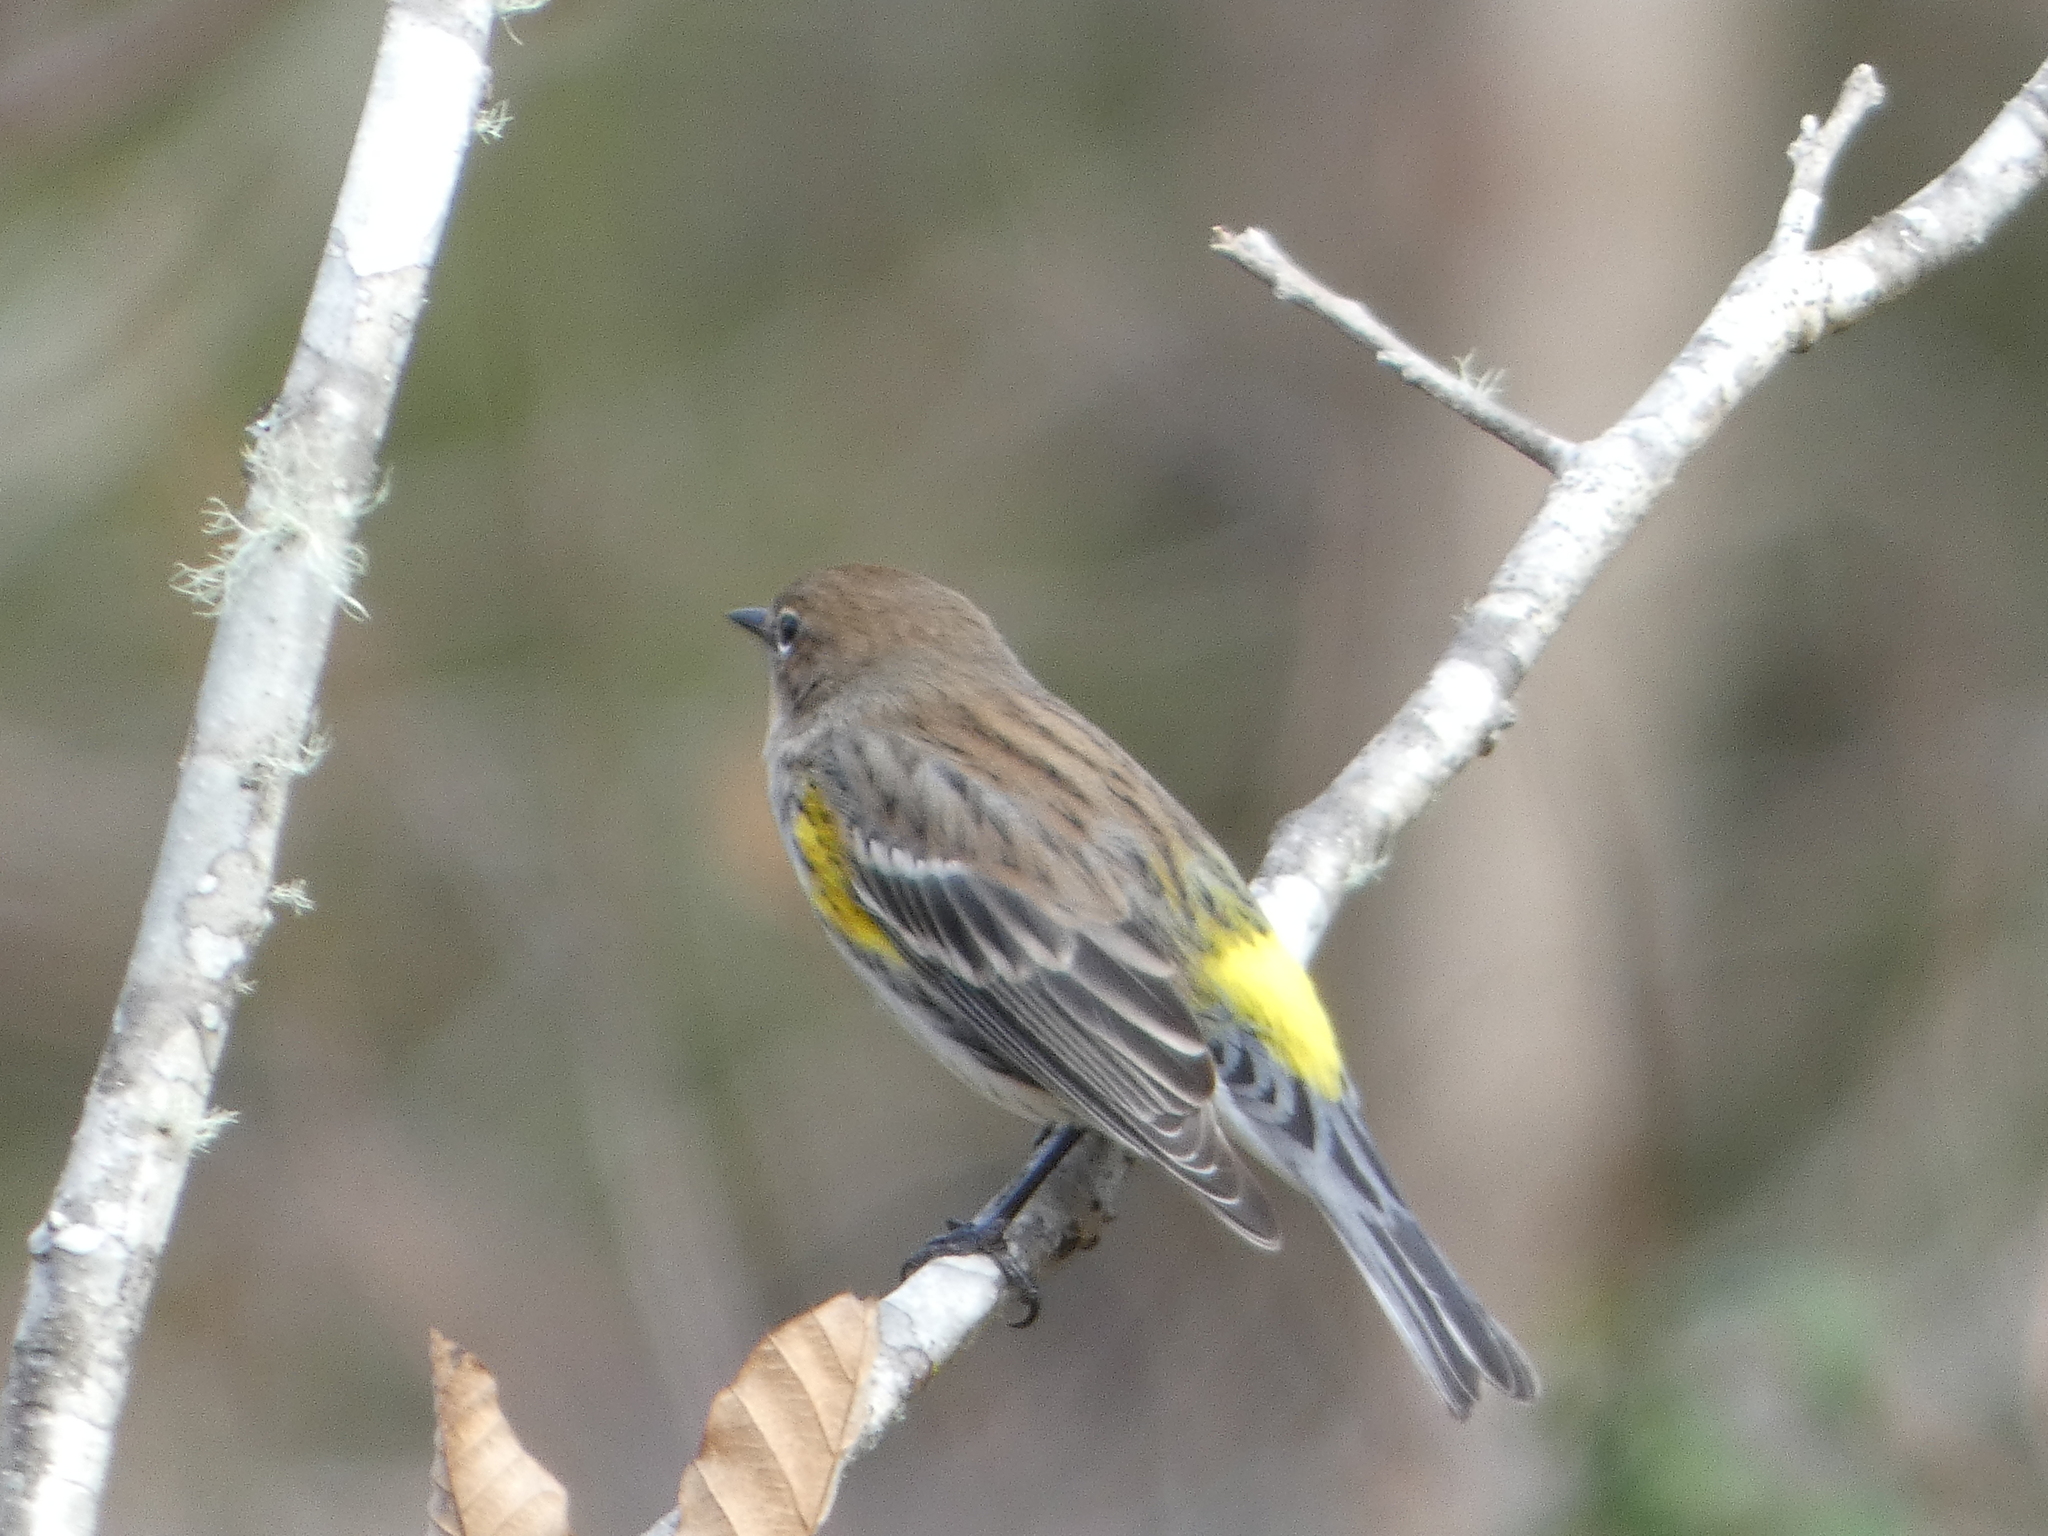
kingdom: Animalia
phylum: Chordata
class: Aves
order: Passeriformes
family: Parulidae
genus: Setophaga
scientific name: Setophaga coronata
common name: Myrtle warbler
